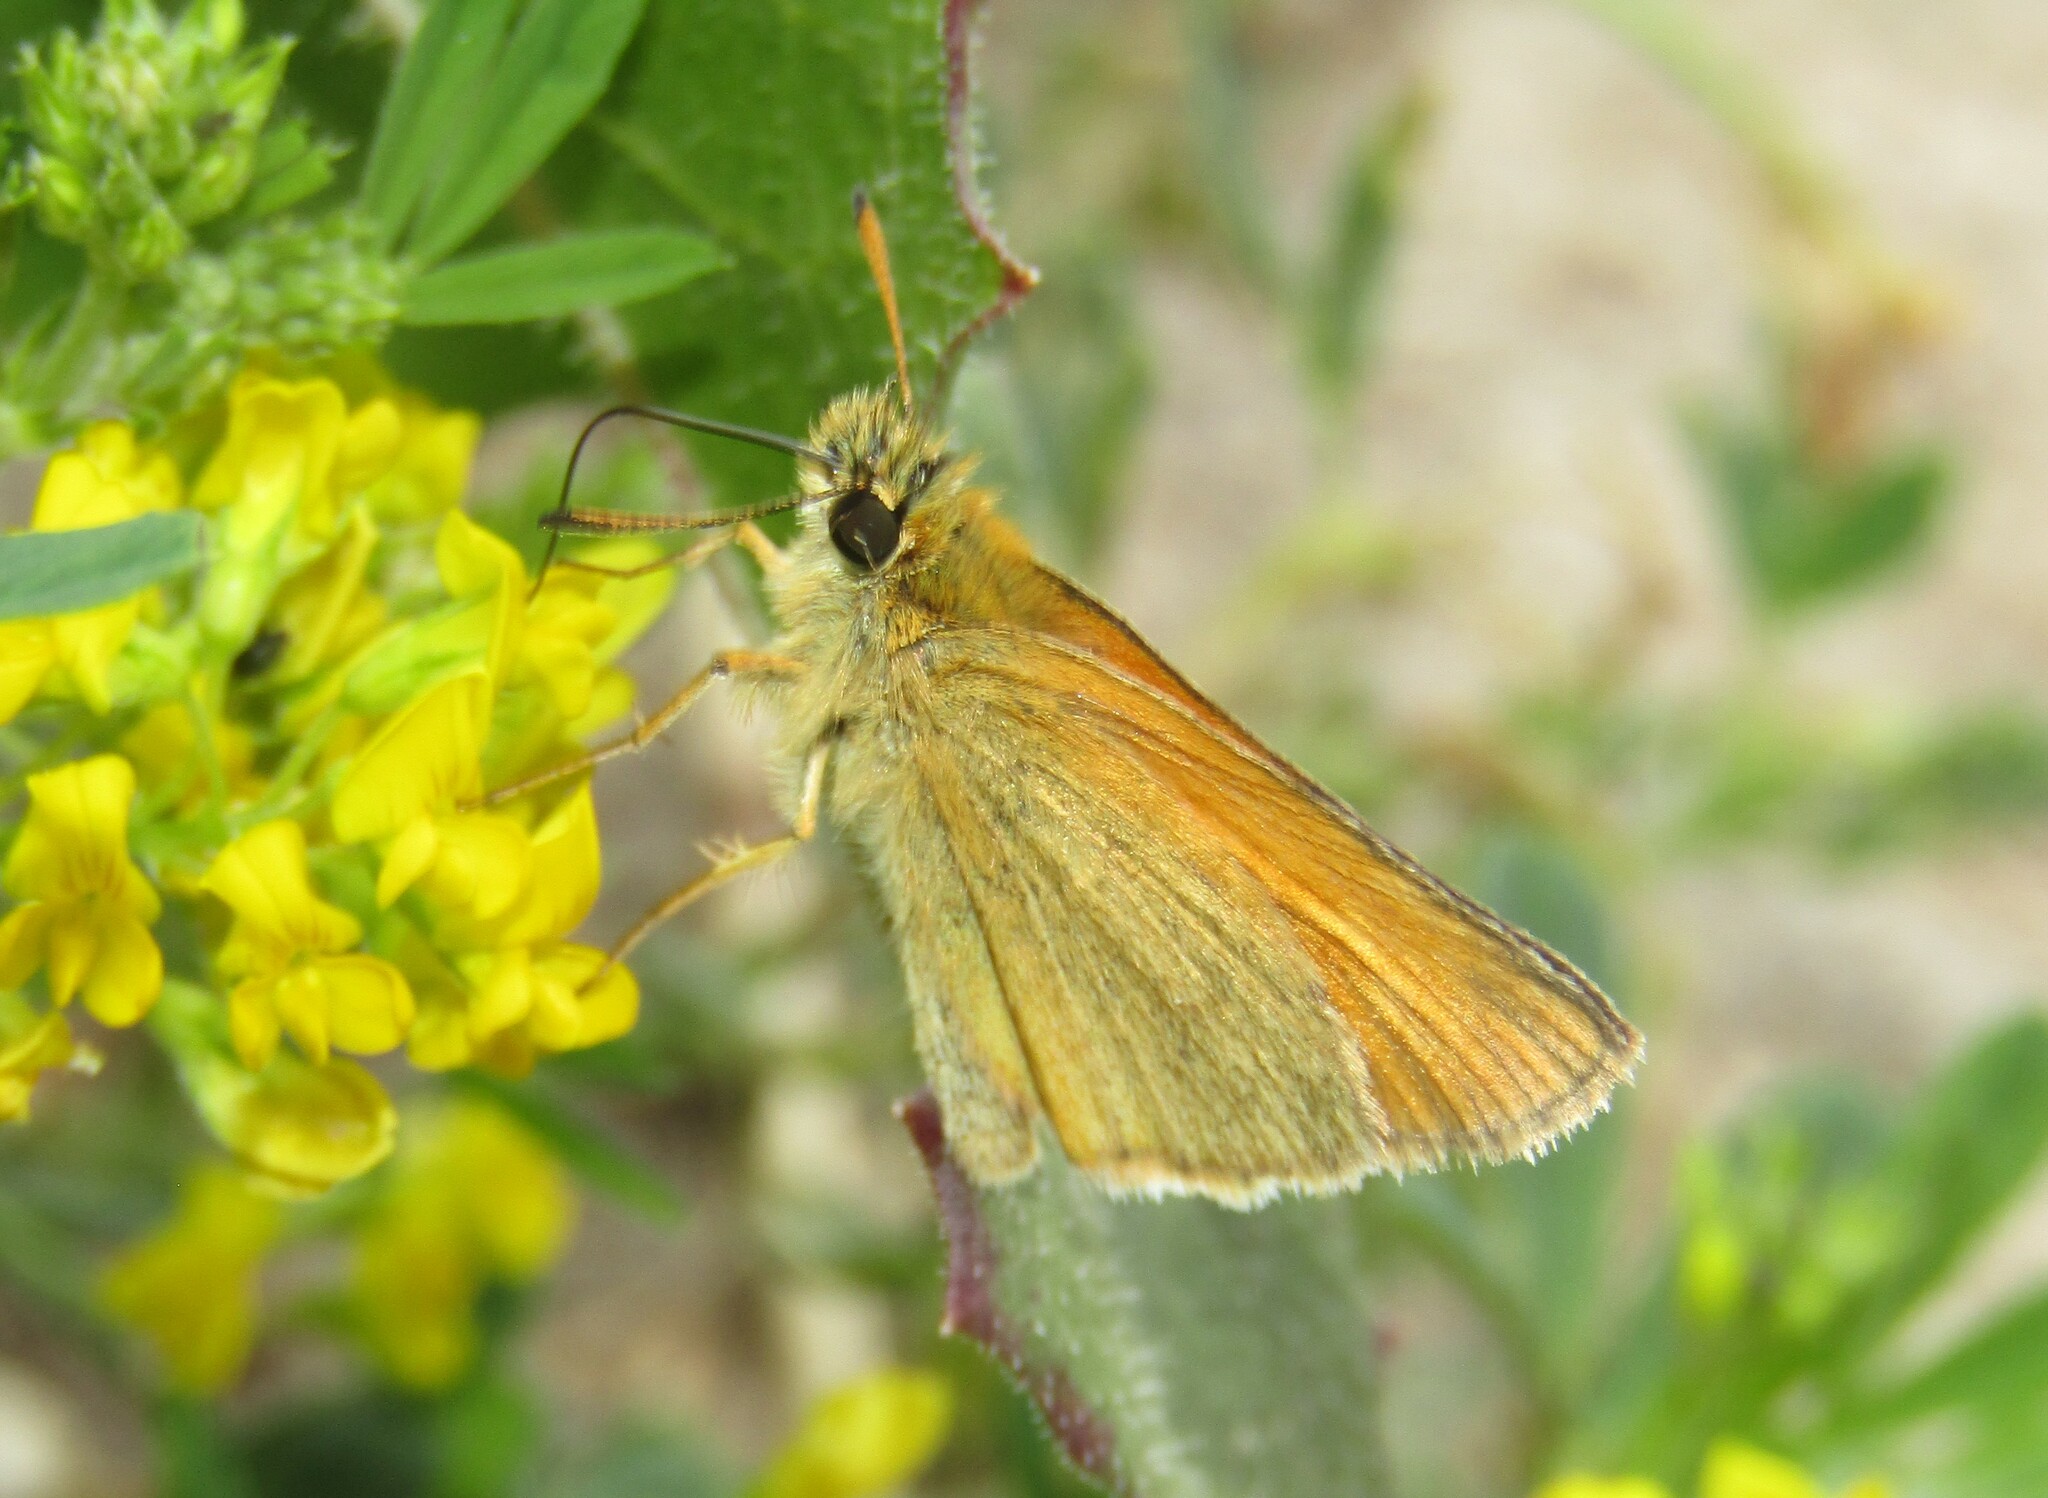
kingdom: Animalia
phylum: Arthropoda
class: Insecta
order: Lepidoptera
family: Hesperiidae
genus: Thymelicus
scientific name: Thymelicus lineola
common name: Essex skipper
